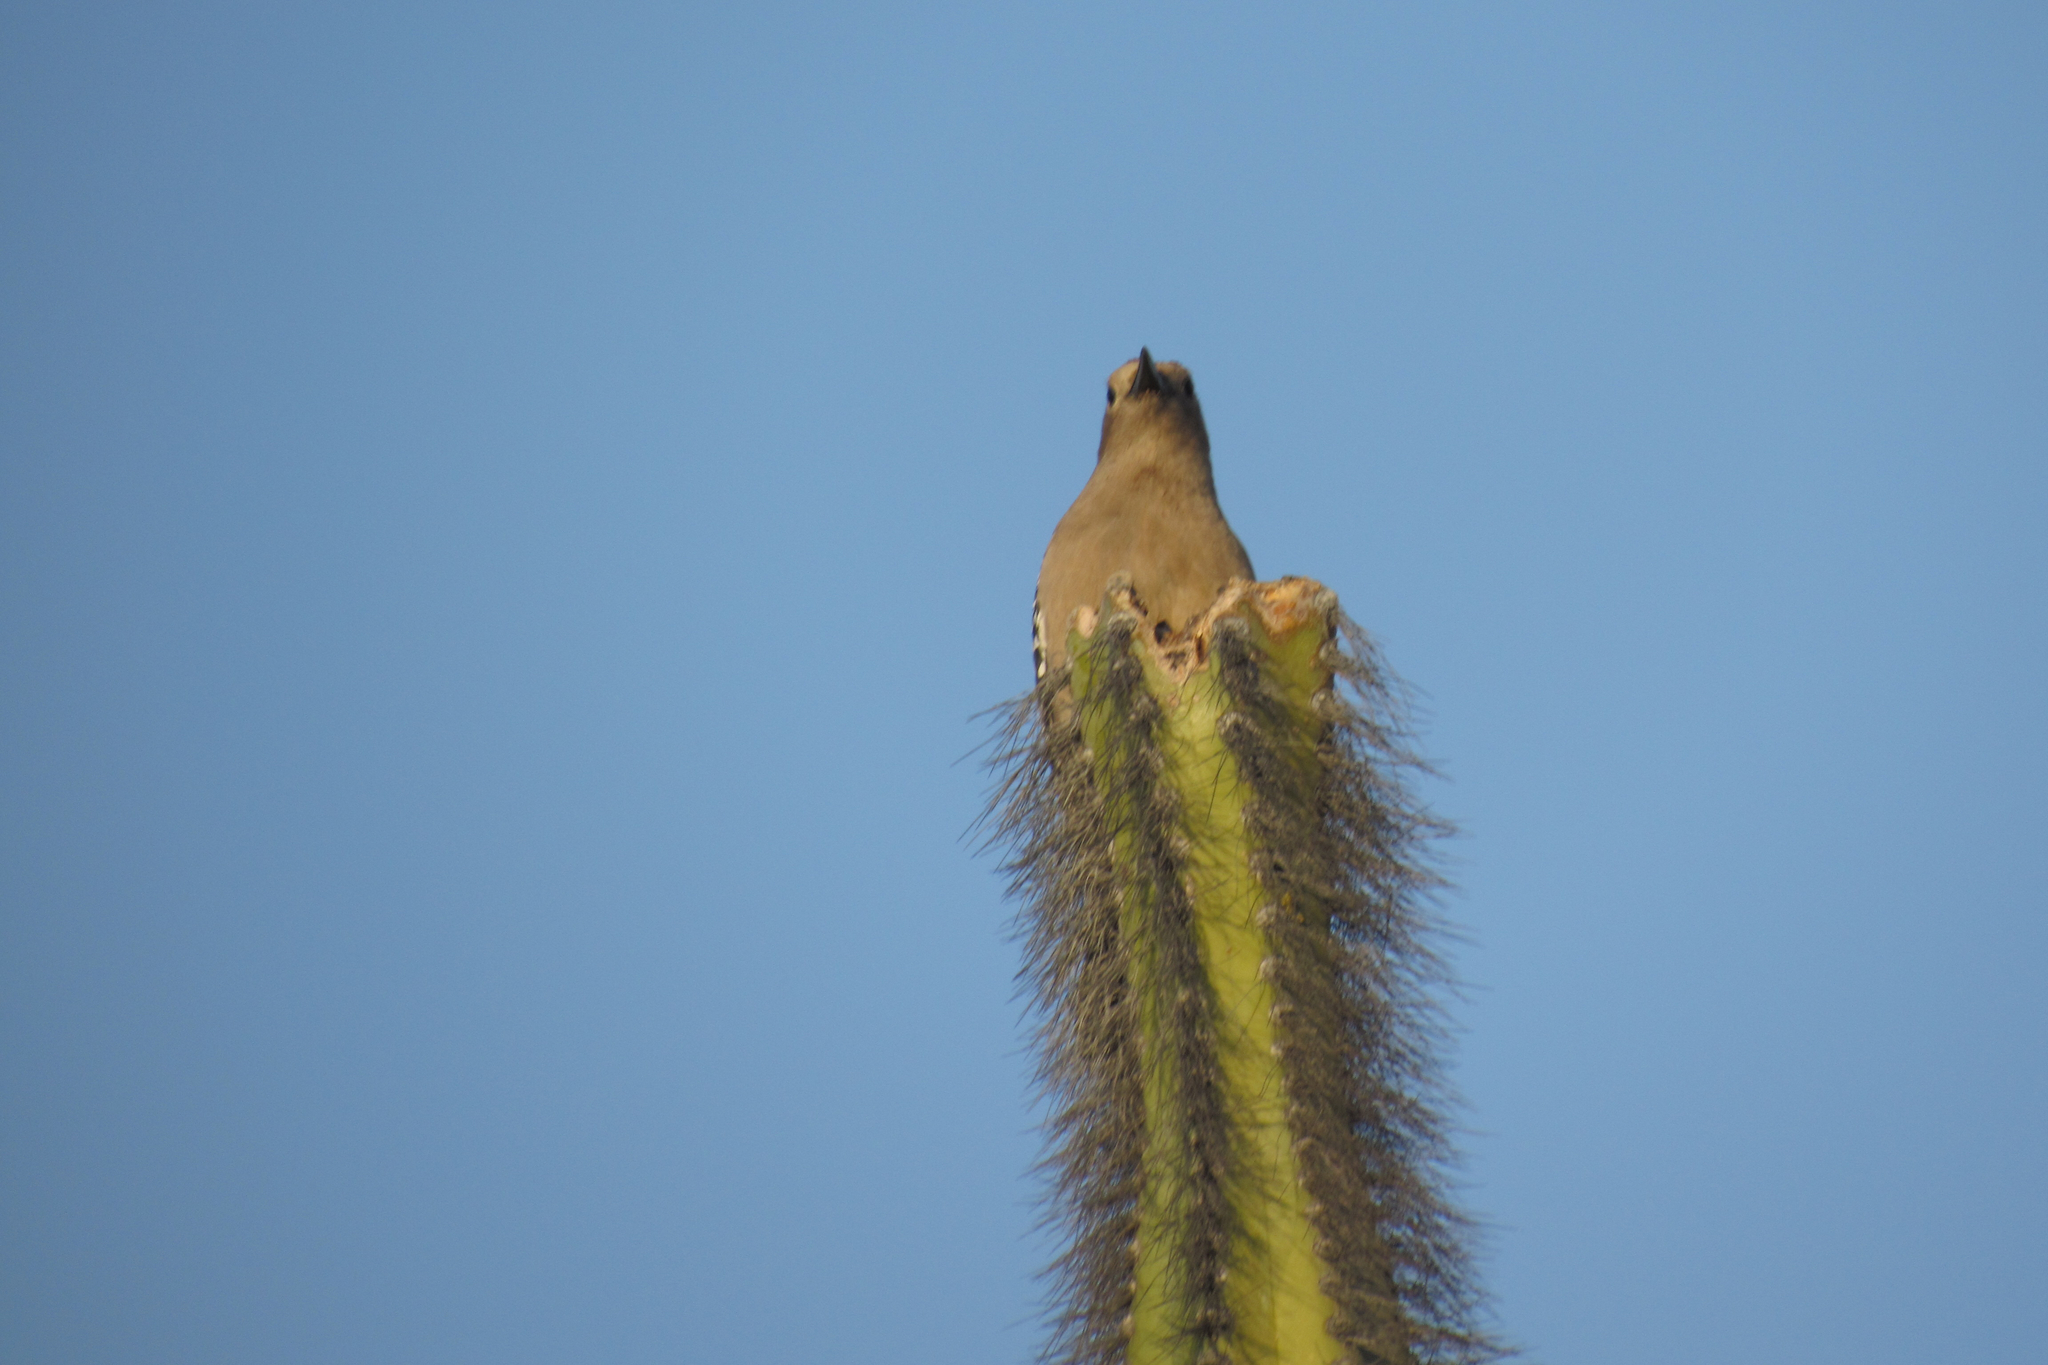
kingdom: Animalia
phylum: Chordata
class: Aves
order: Piciformes
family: Picidae
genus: Melanerpes
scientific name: Melanerpes uropygialis
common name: Gila woodpecker
